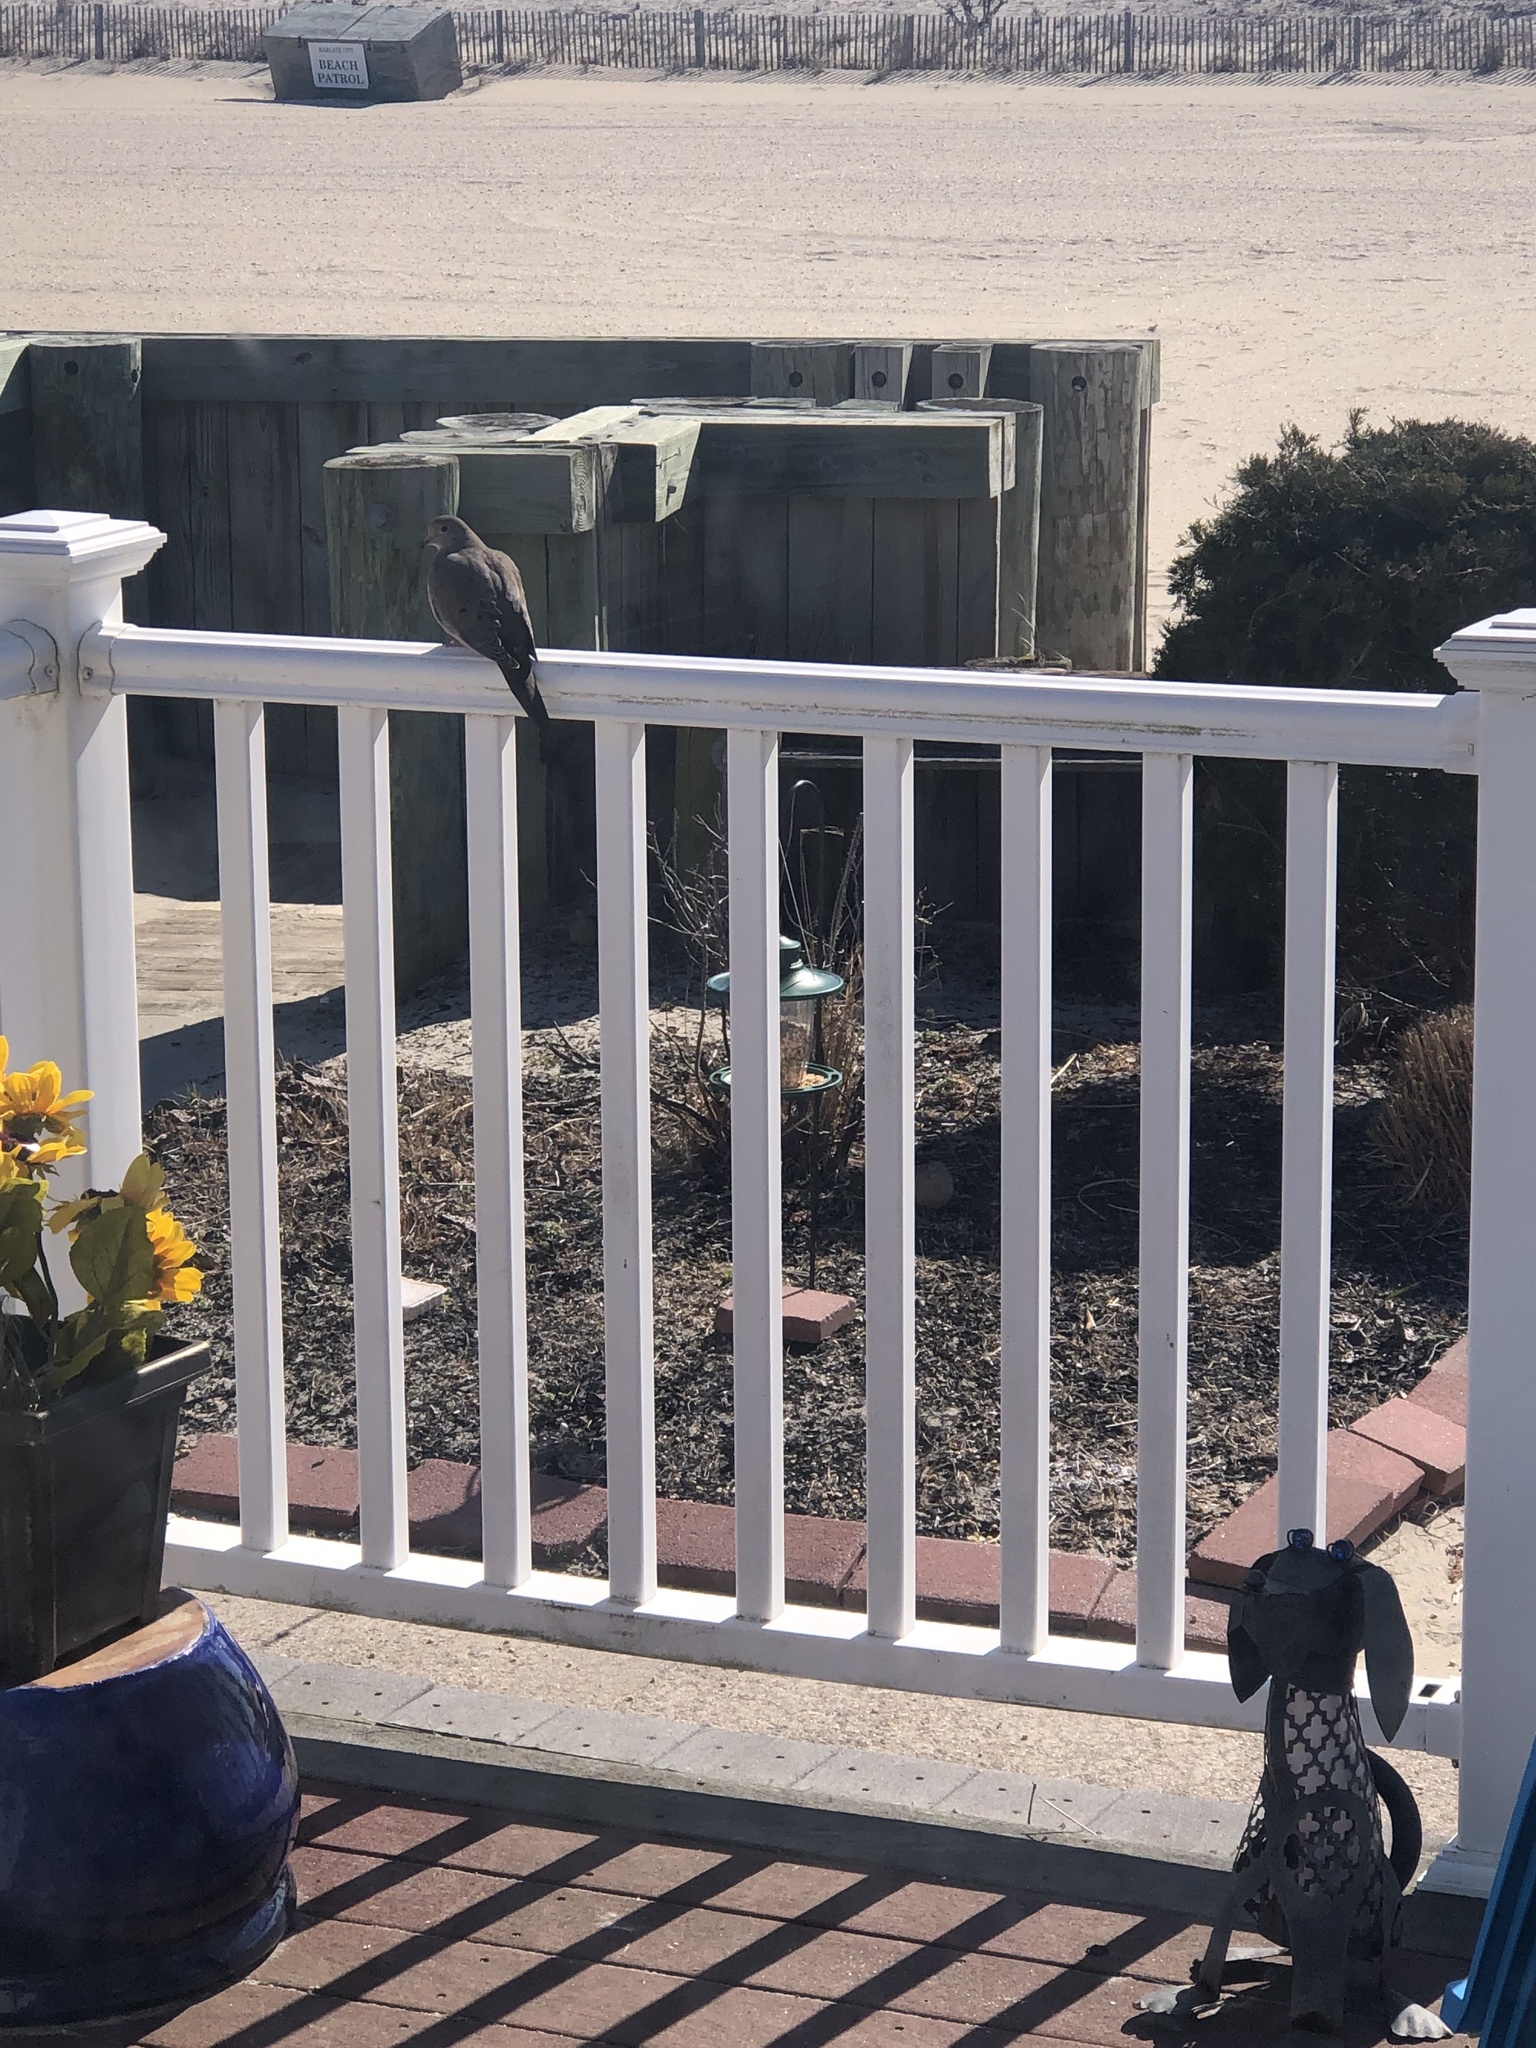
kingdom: Animalia
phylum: Chordata
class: Aves
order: Columbiformes
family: Columbidae
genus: Zenaida
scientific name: Zenaida macroura
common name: Mourning dove
